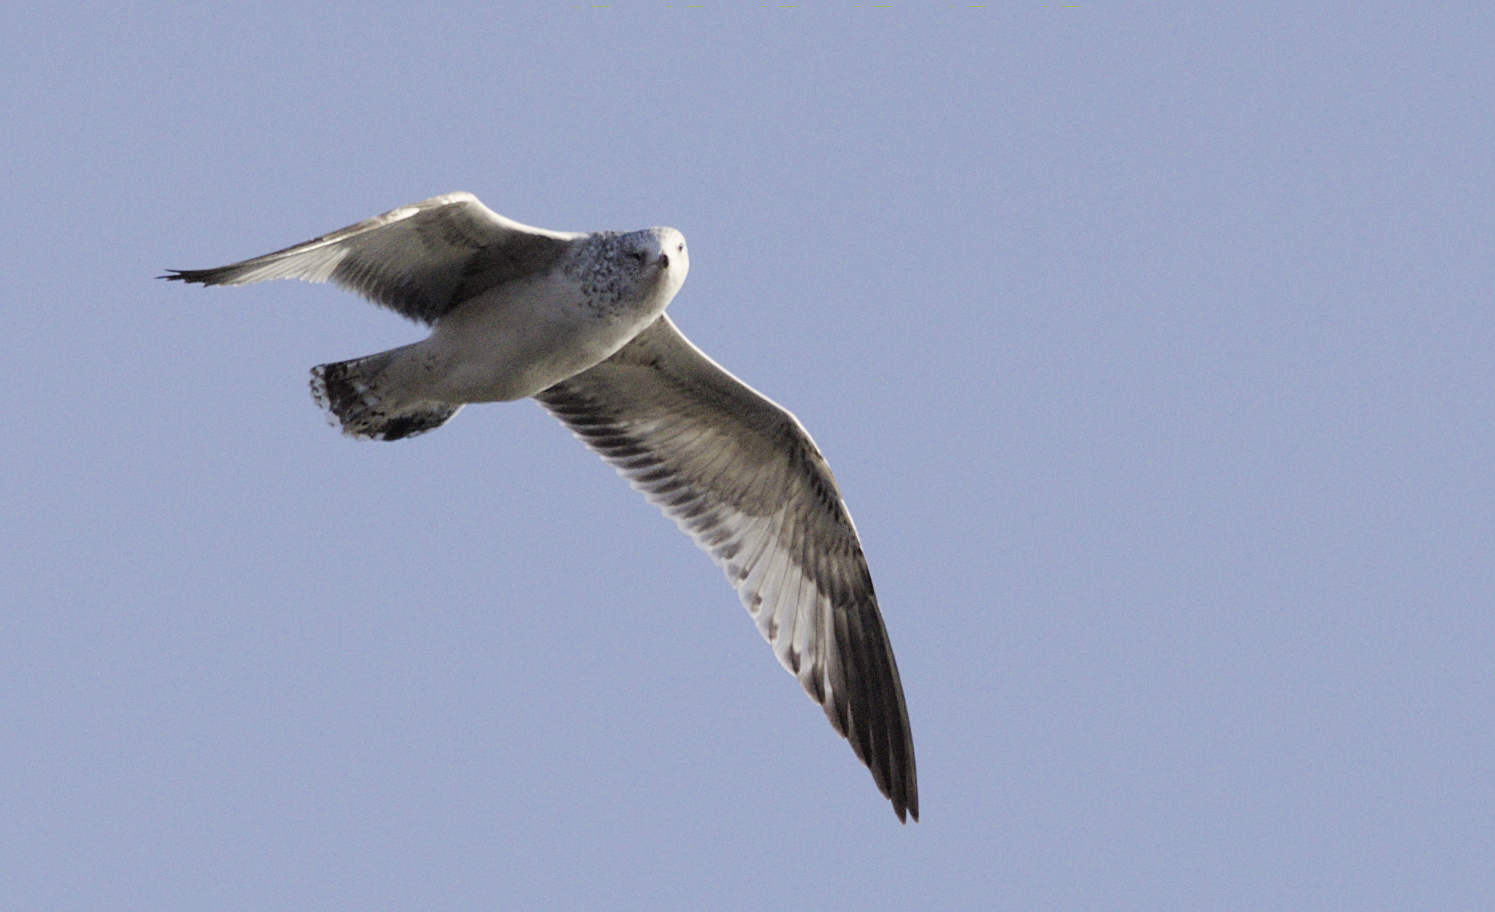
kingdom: Animalia
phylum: Chordata
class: Aves
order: Charadriiformes
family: Laridae
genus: Larus
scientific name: Larus delawarensis
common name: Ring-billed gull
